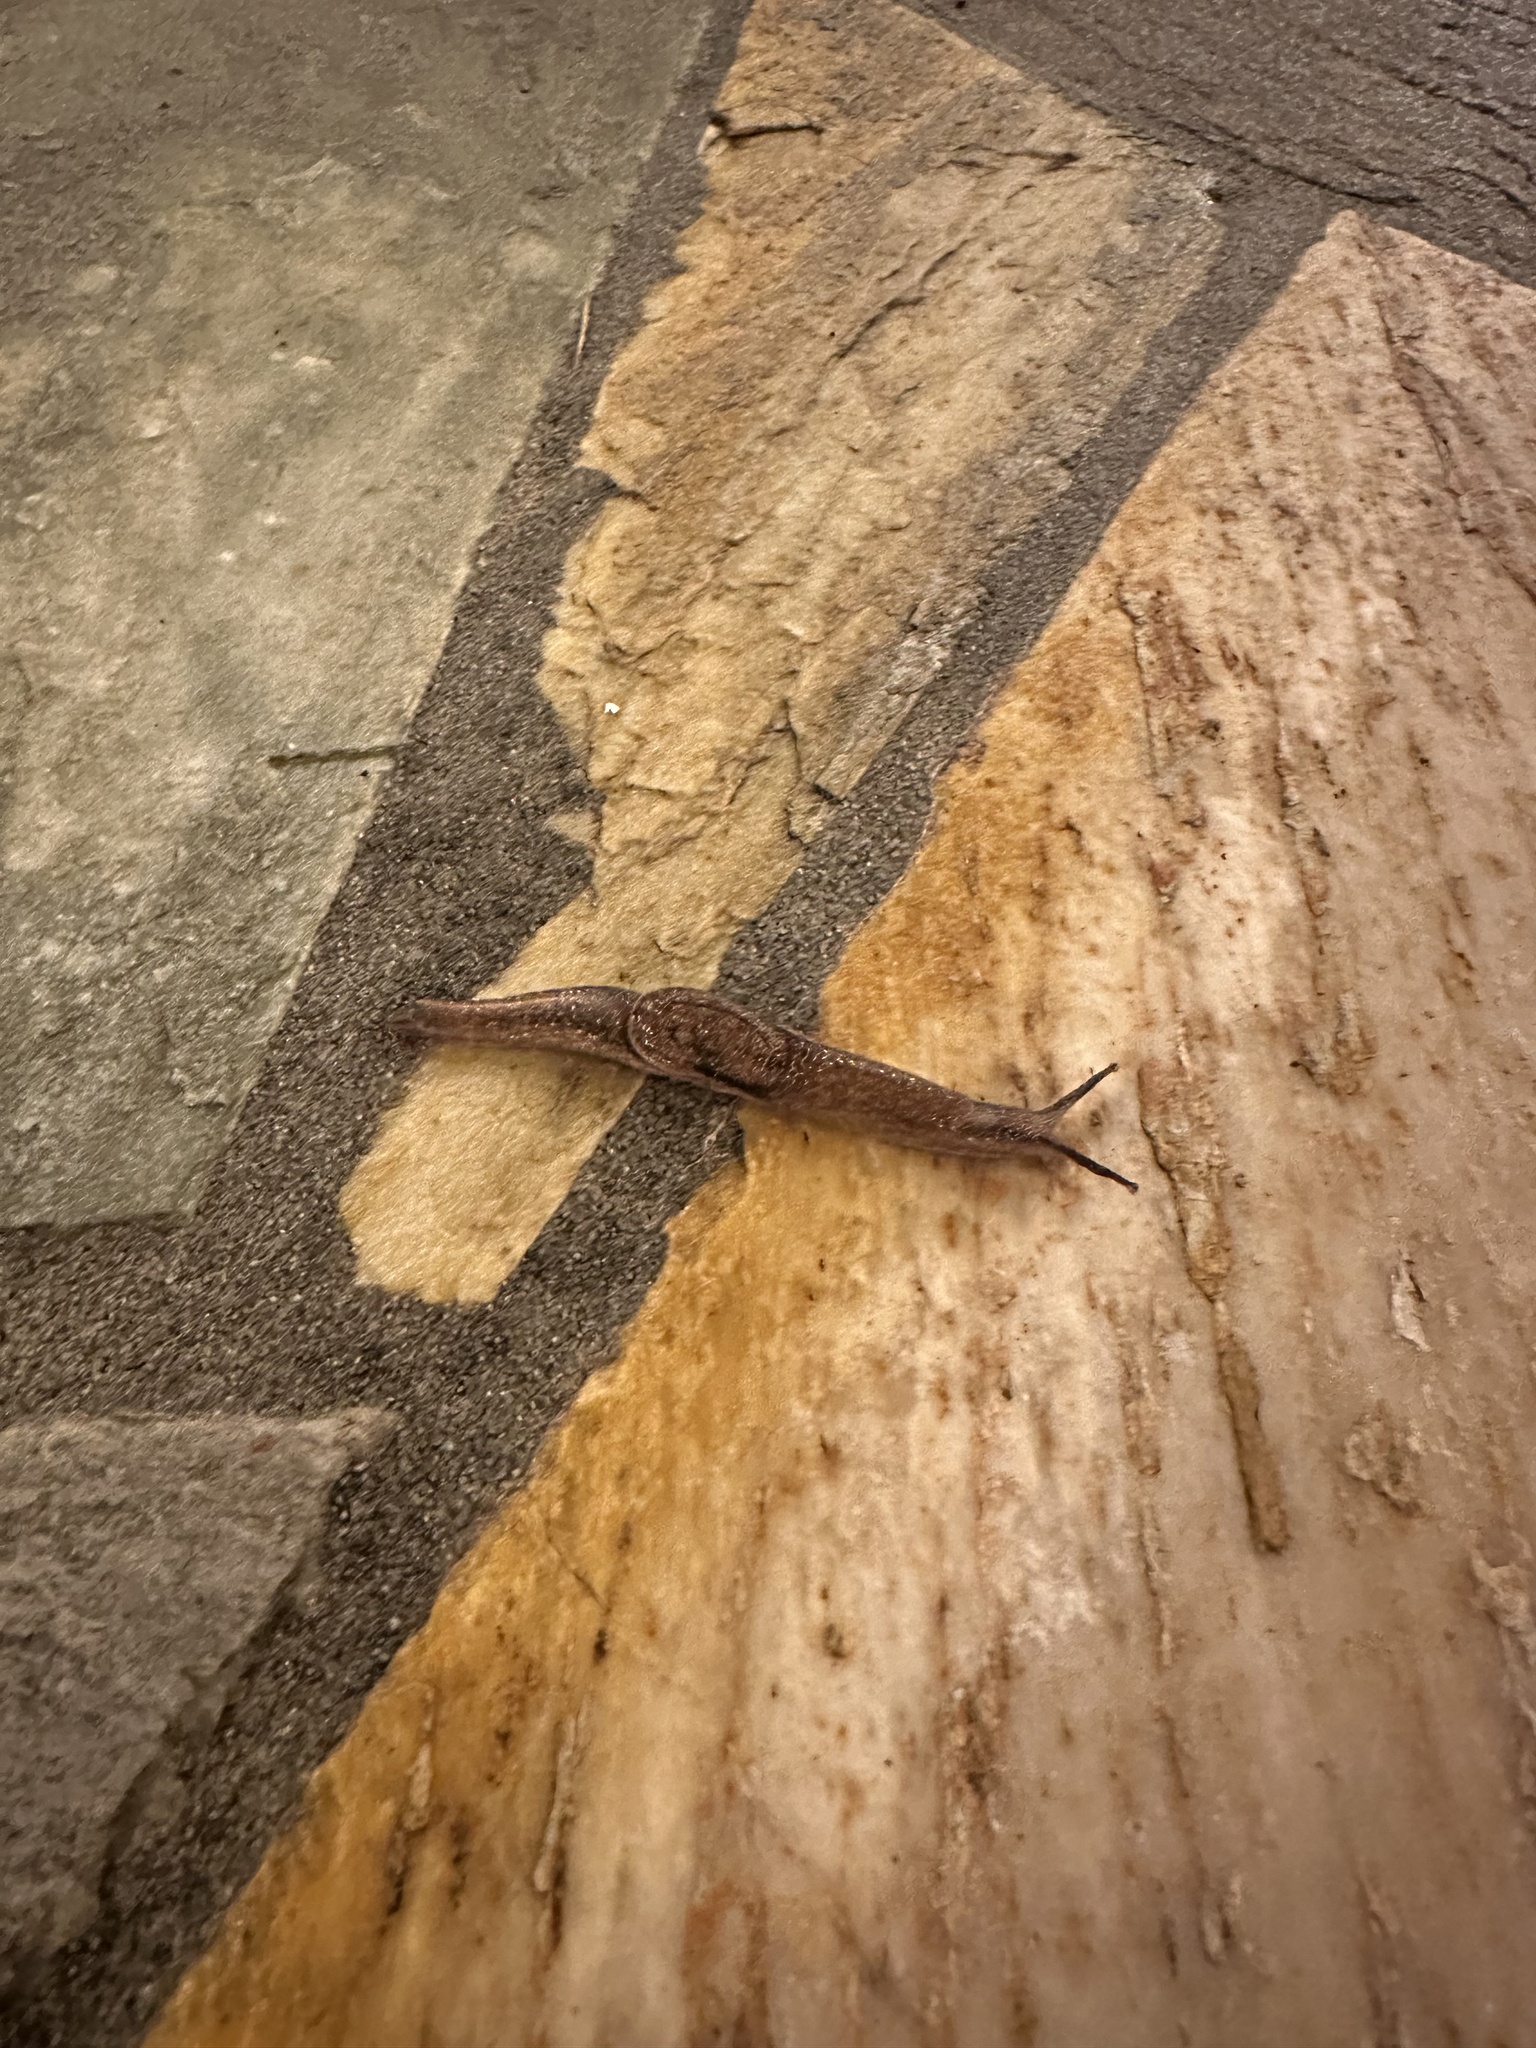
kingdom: Animalia
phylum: Mollusca
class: Gastropoda
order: Stylommatophora
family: Ariophantidae
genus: Parmarion
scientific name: Parmarion martensi
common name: Semi-slug
